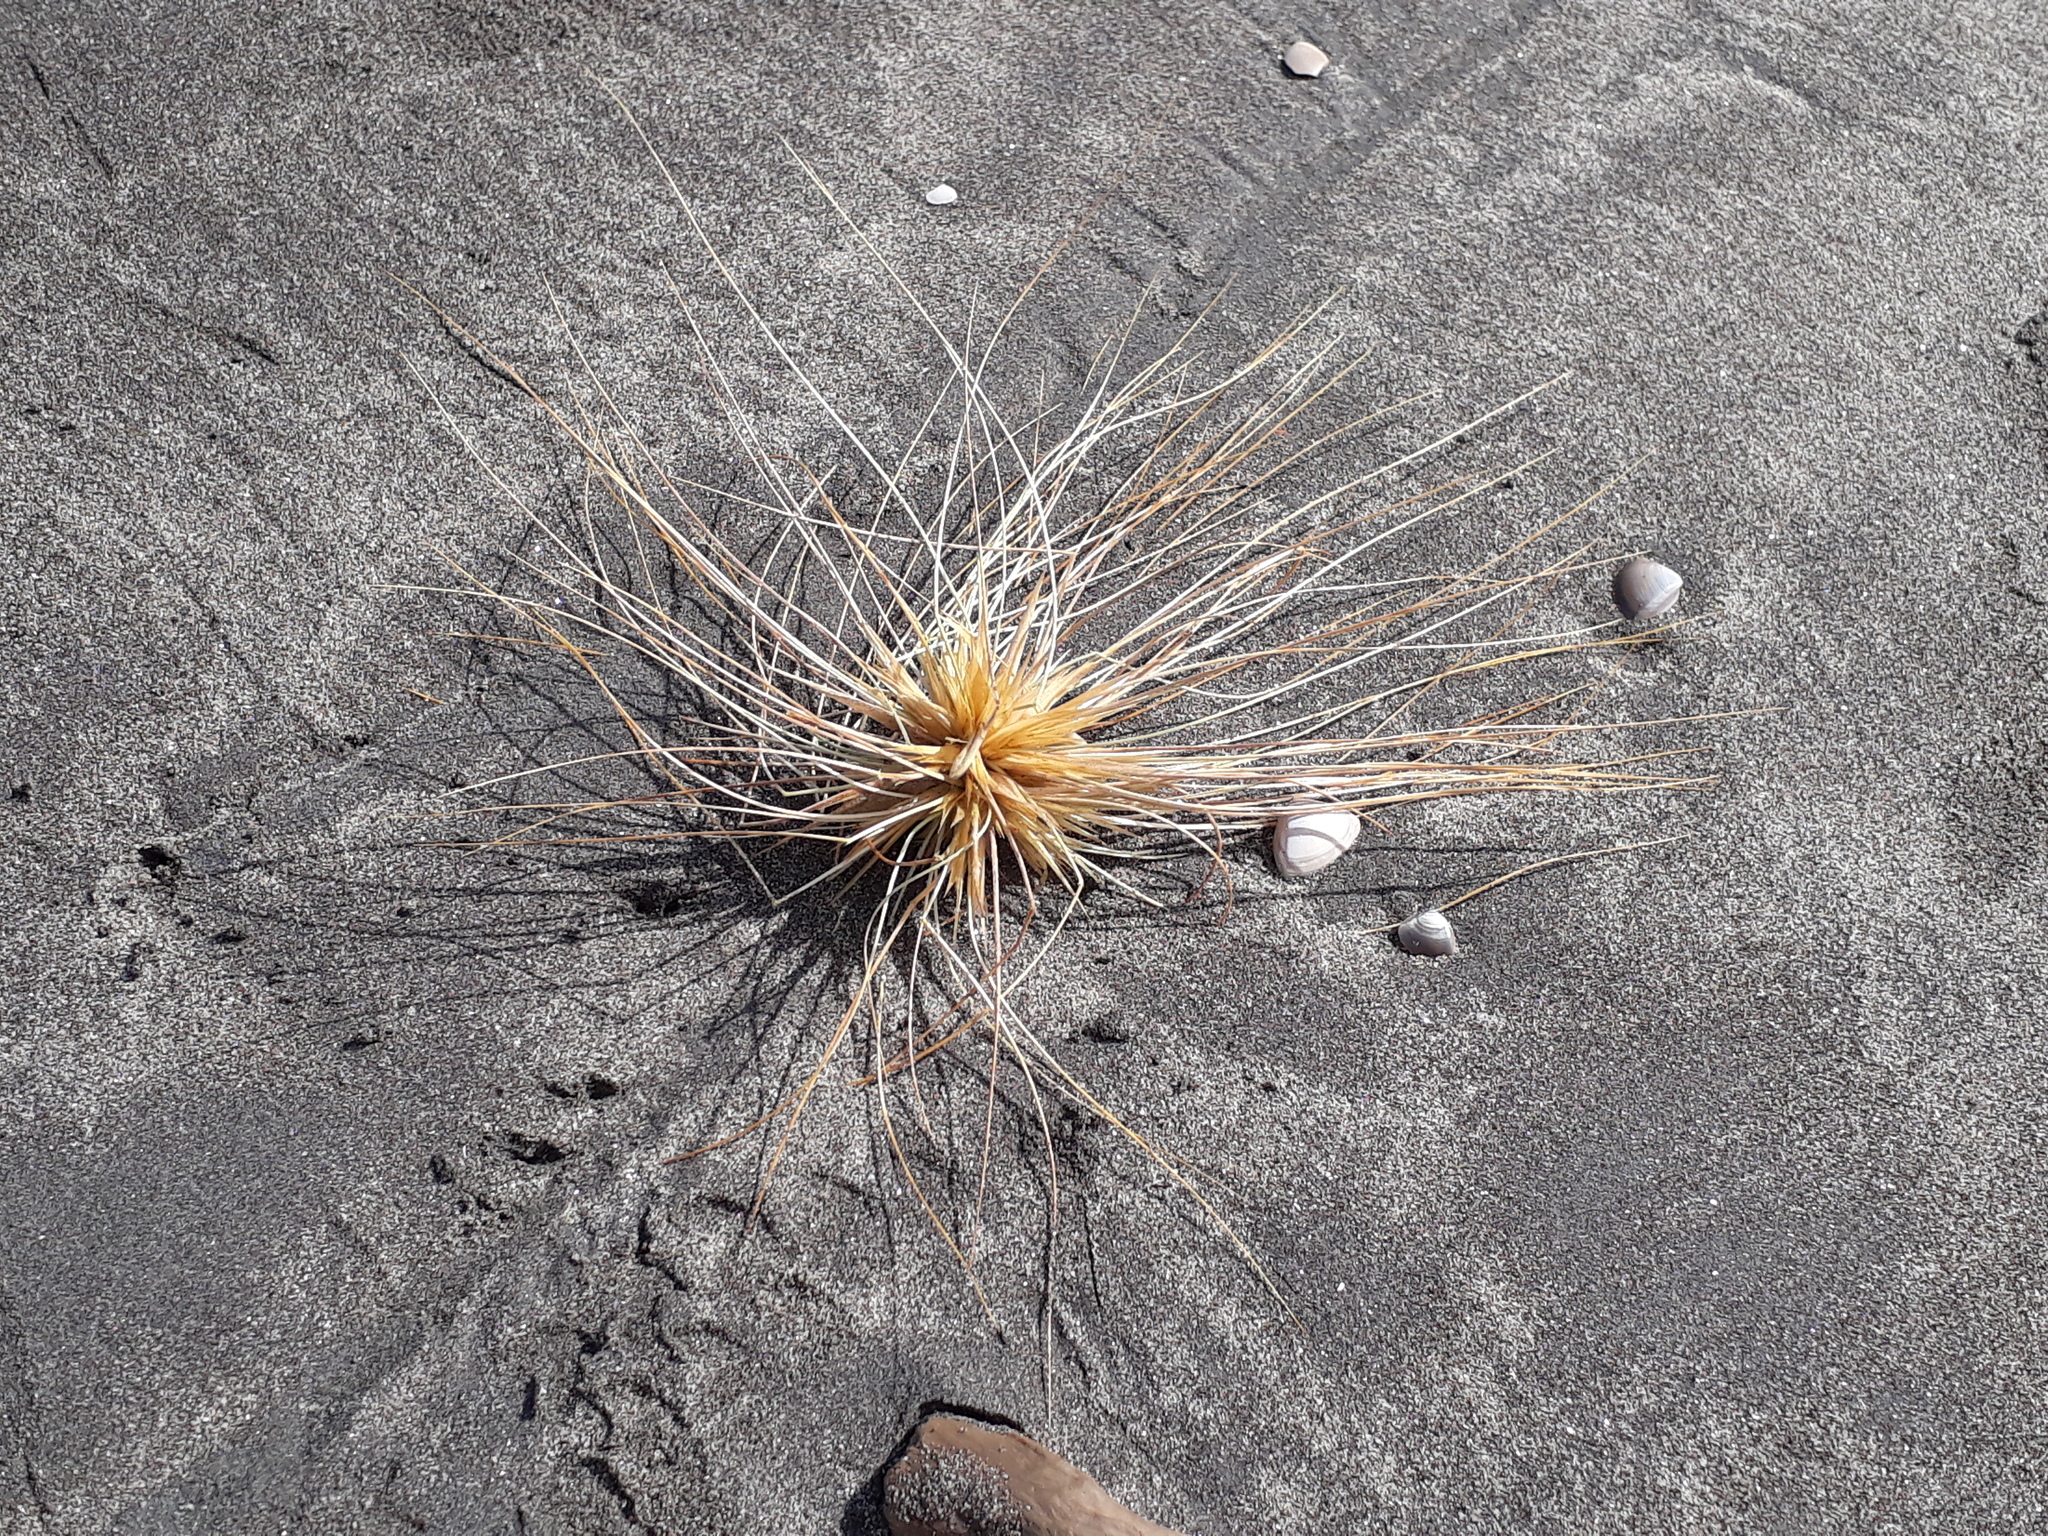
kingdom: Plantae
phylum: Tracheophyta
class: Liliopsida
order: Poales
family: Poaceae
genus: Spinifex
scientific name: Spinifex sericeus
